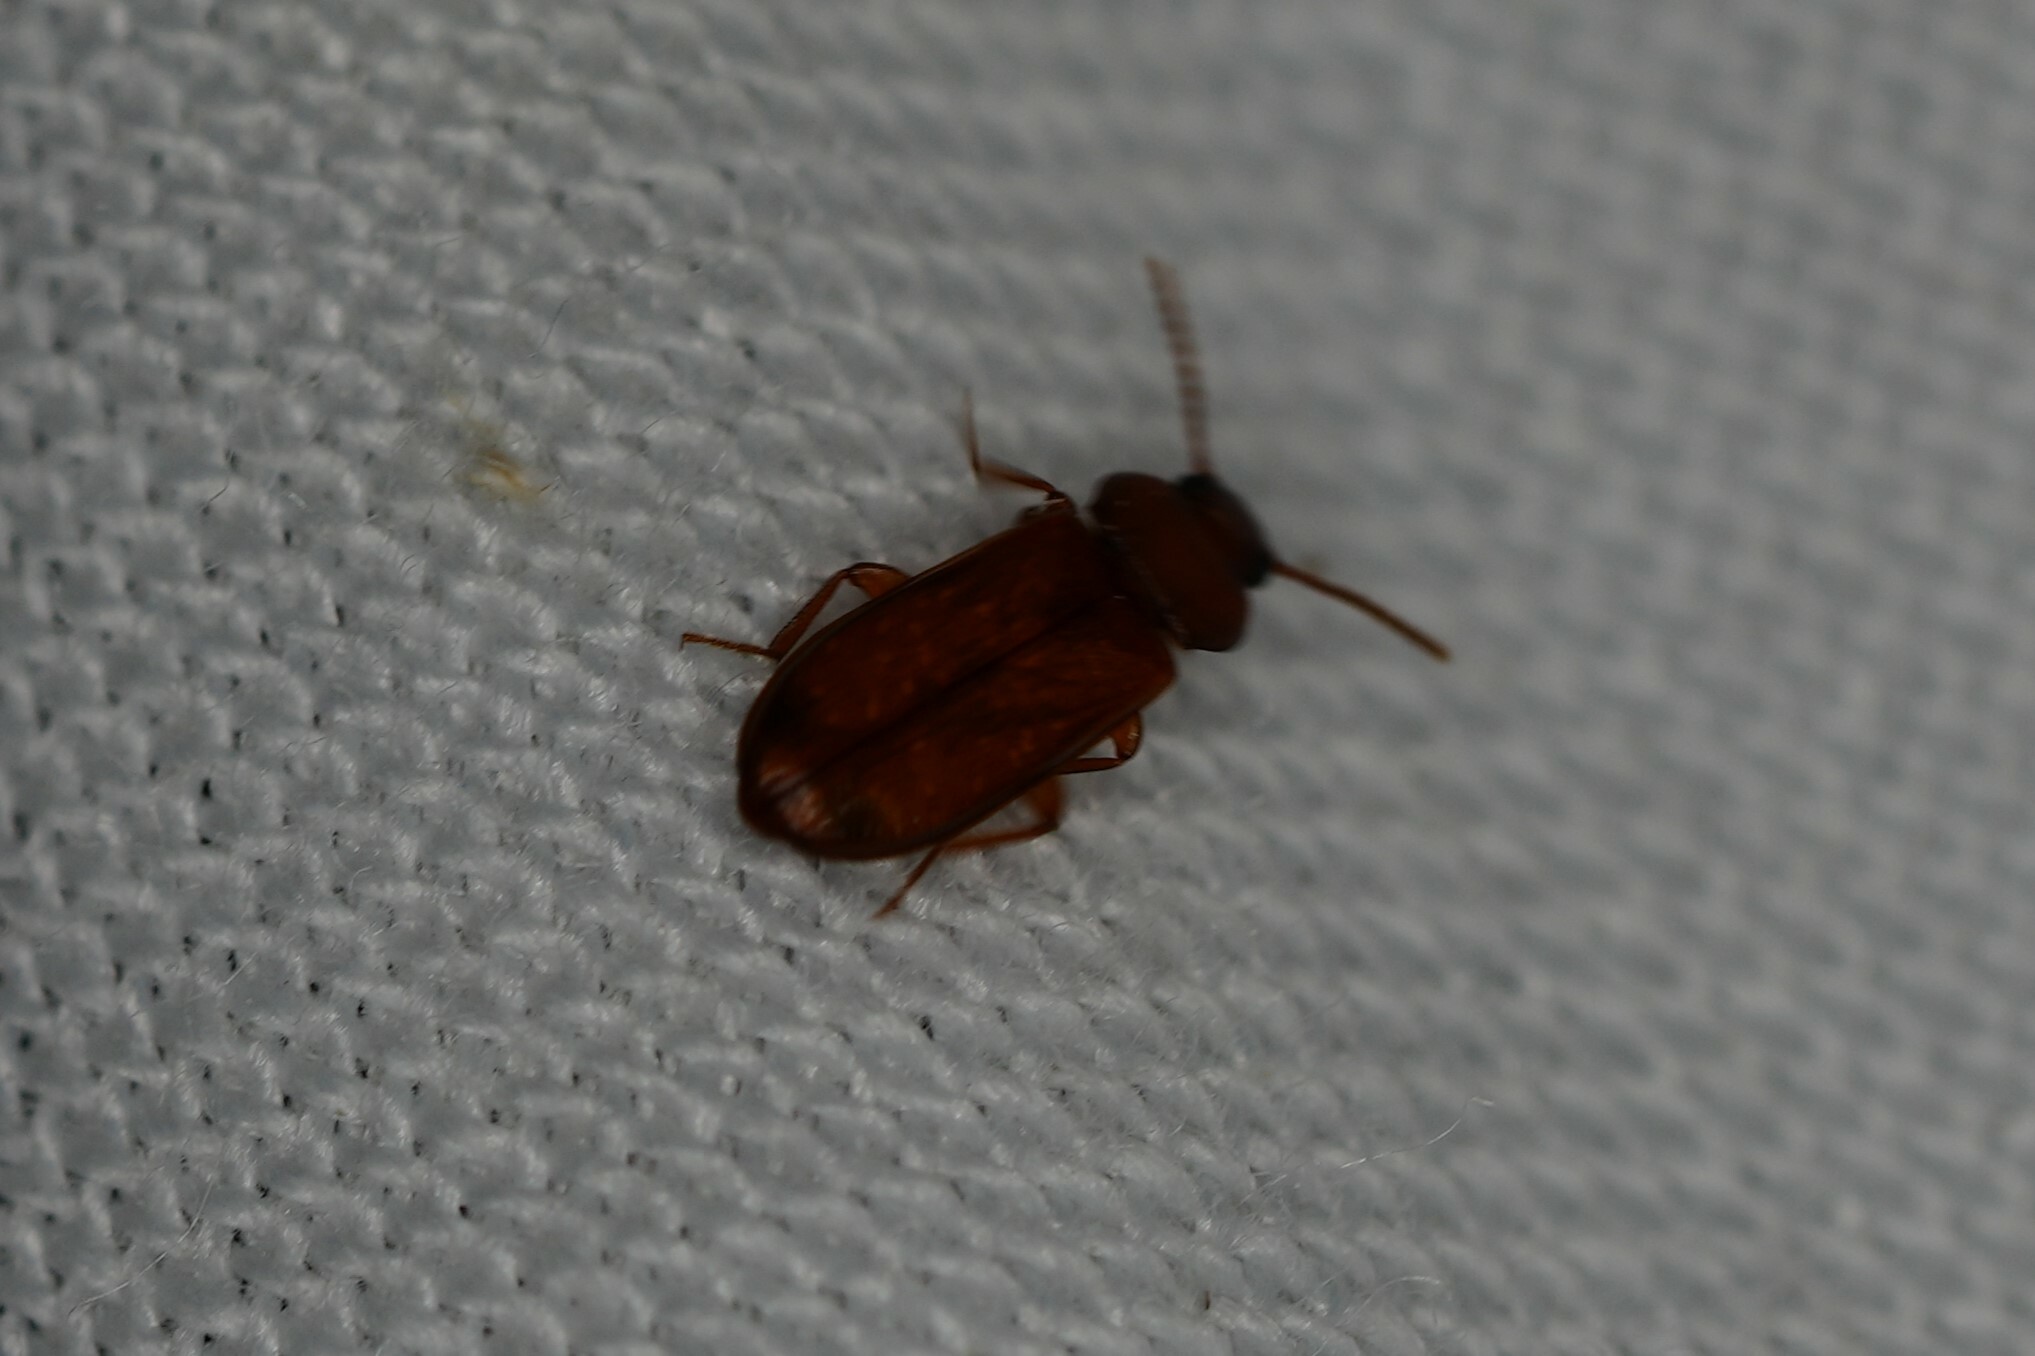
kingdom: Animalia
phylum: Arthropoda
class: Insecta
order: Coleoptera
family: Tenebrionidae
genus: Adelina
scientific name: Adelina pallida
